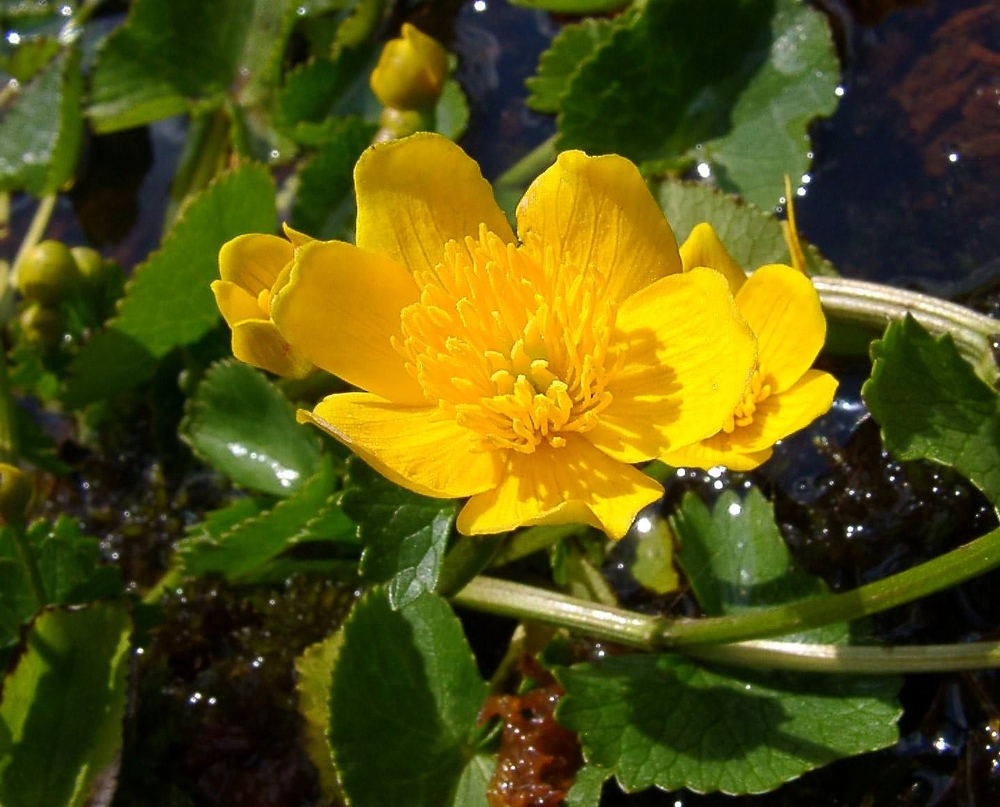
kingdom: Plantae
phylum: Tracheophyta
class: Magnoliopsida
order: Ranunculales
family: Ranunculaceae
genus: Caltha
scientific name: Caltha palustris
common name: Marsh marigold
